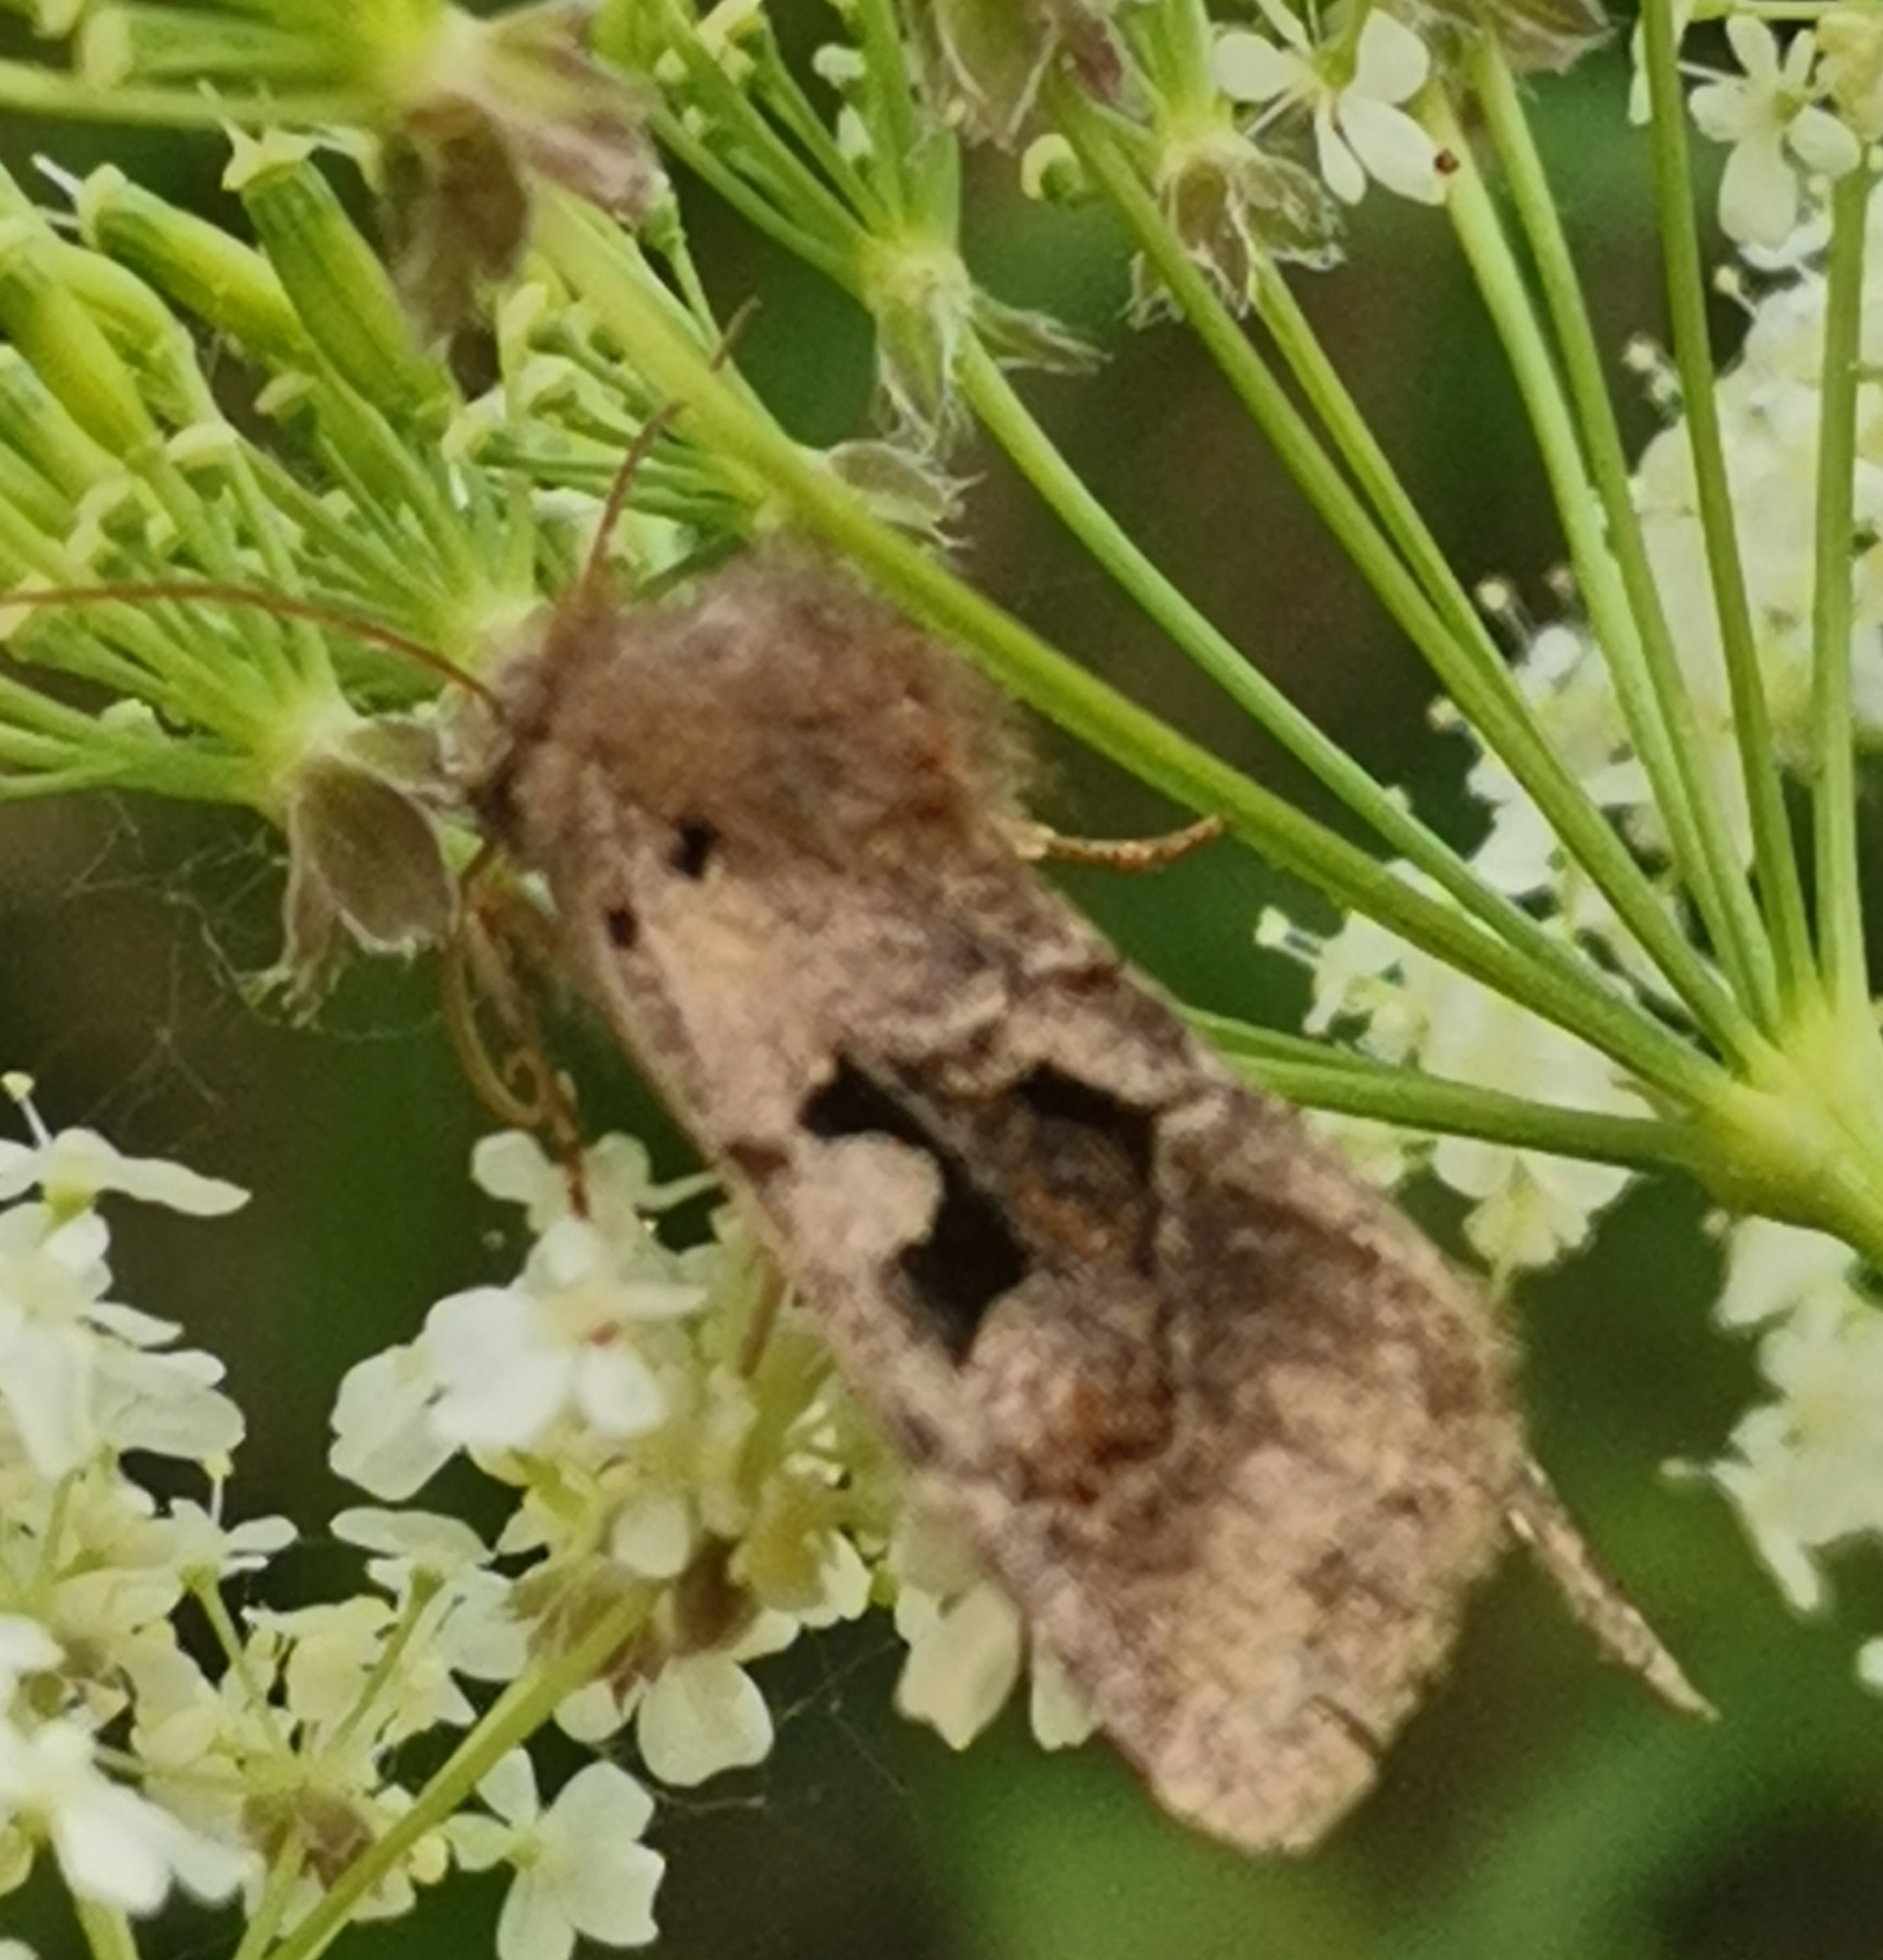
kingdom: Animalia
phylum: Arthropoda
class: Insecta
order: Lepidoptera
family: Noctuidae
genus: Orthosia
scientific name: Orthosia gothica
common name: Hebrew character
